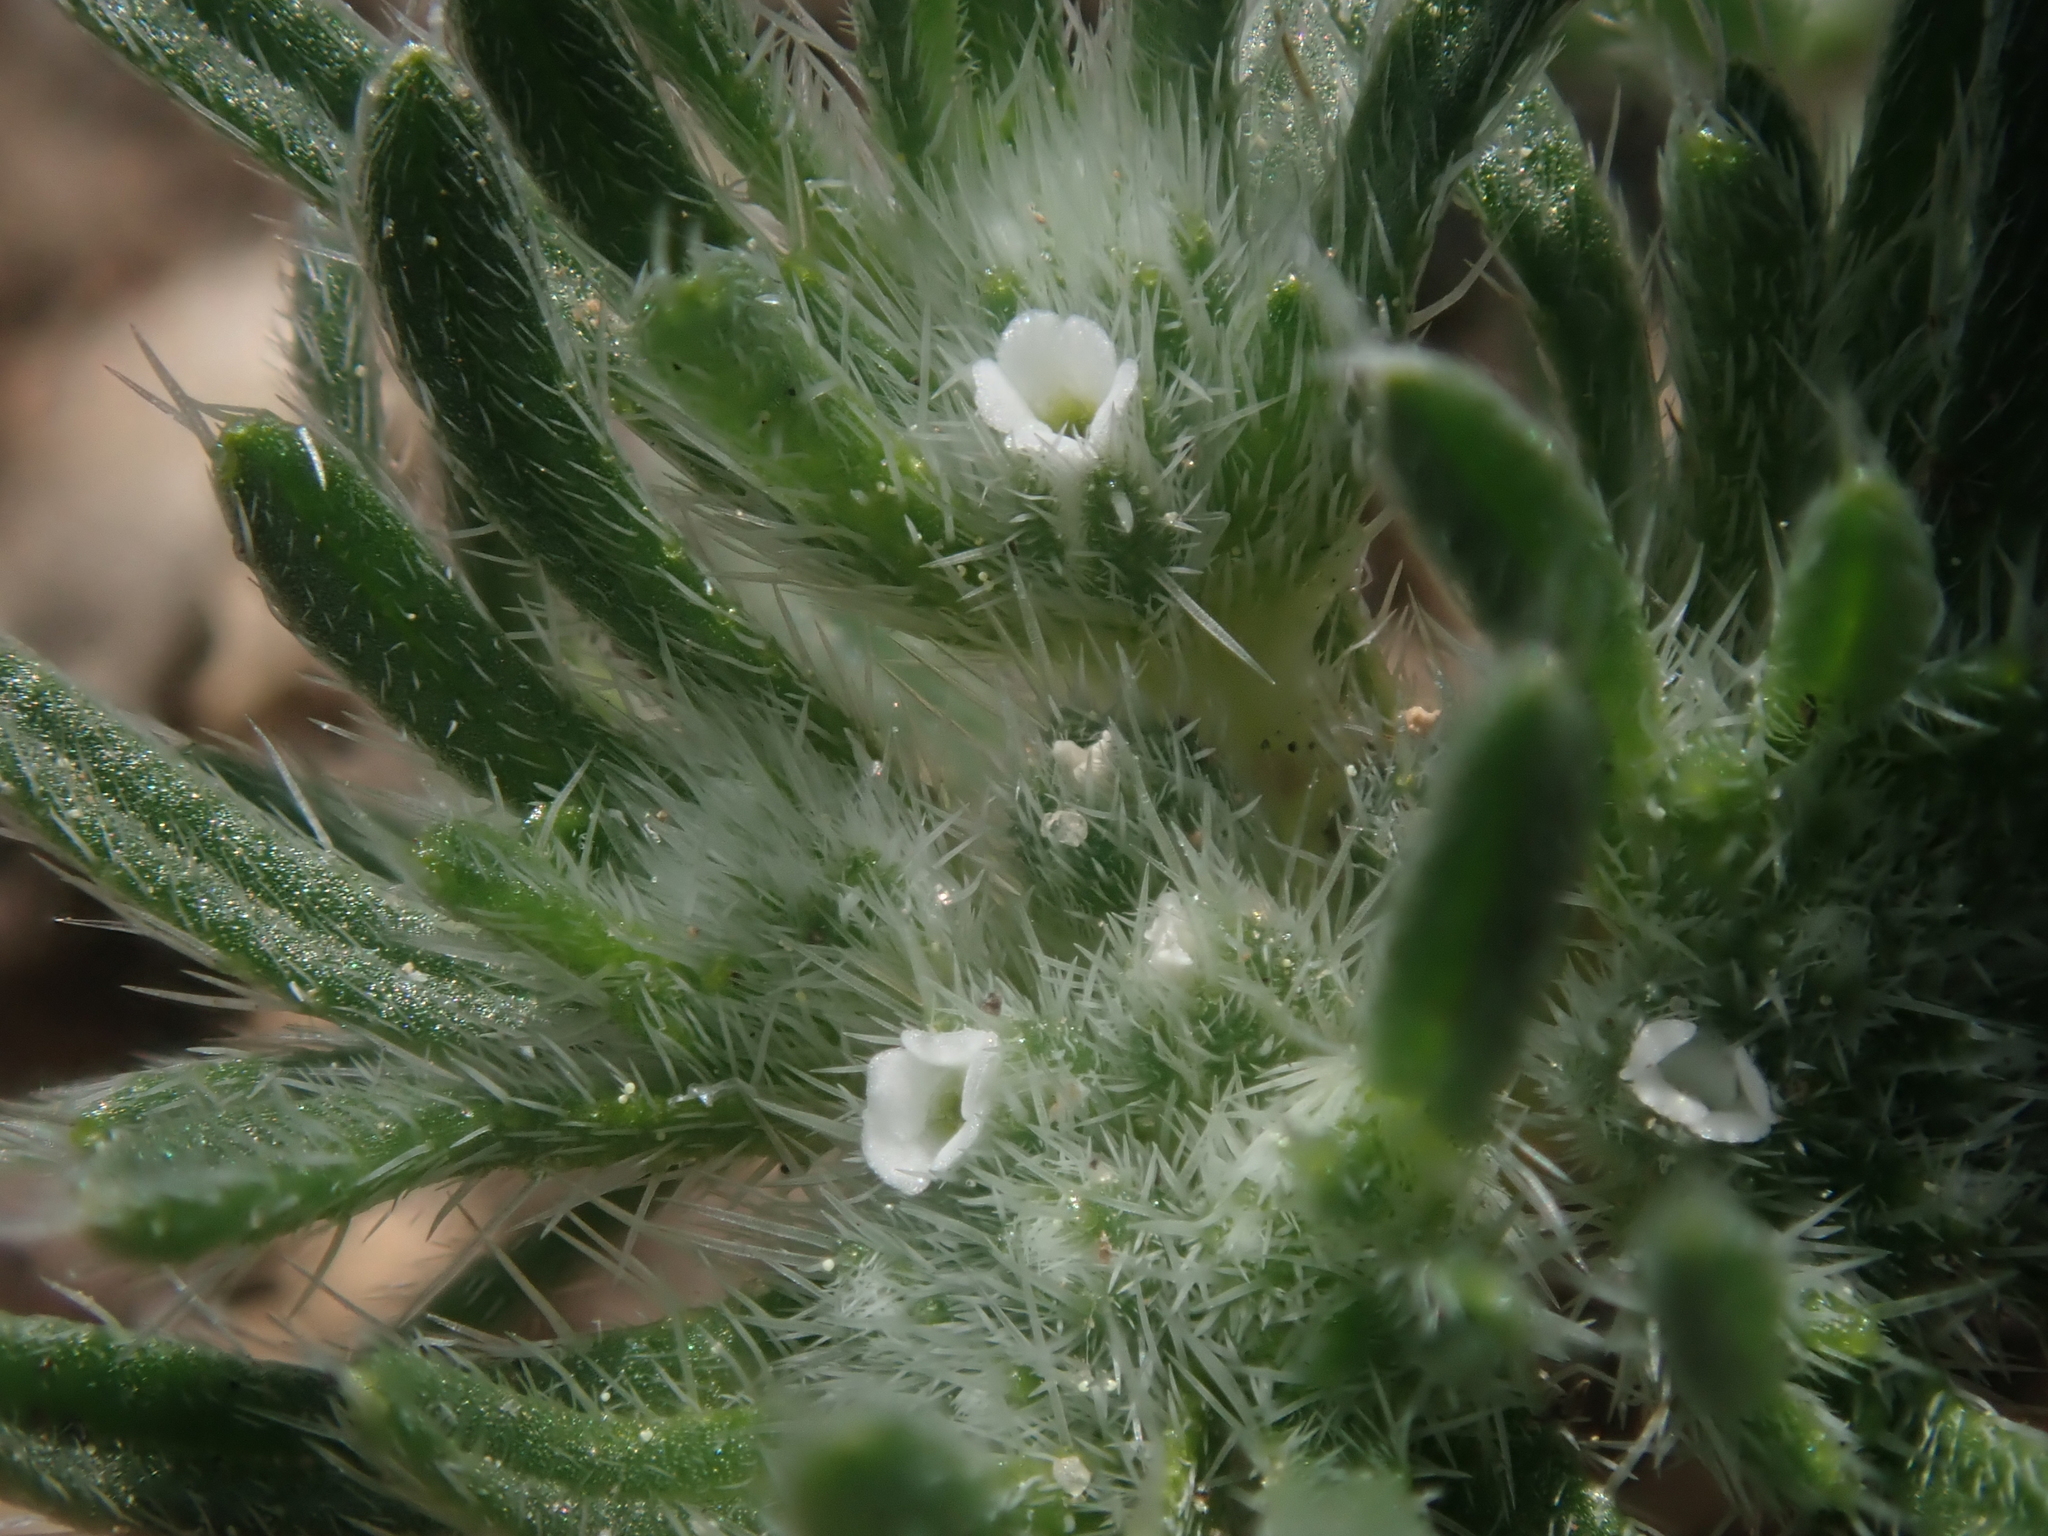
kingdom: Plantae
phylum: Tracheophyta
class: Magnoliopsida
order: Boraginales
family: Boraginaceae
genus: Greeneocharis
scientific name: Greeneocharis circumscissa
